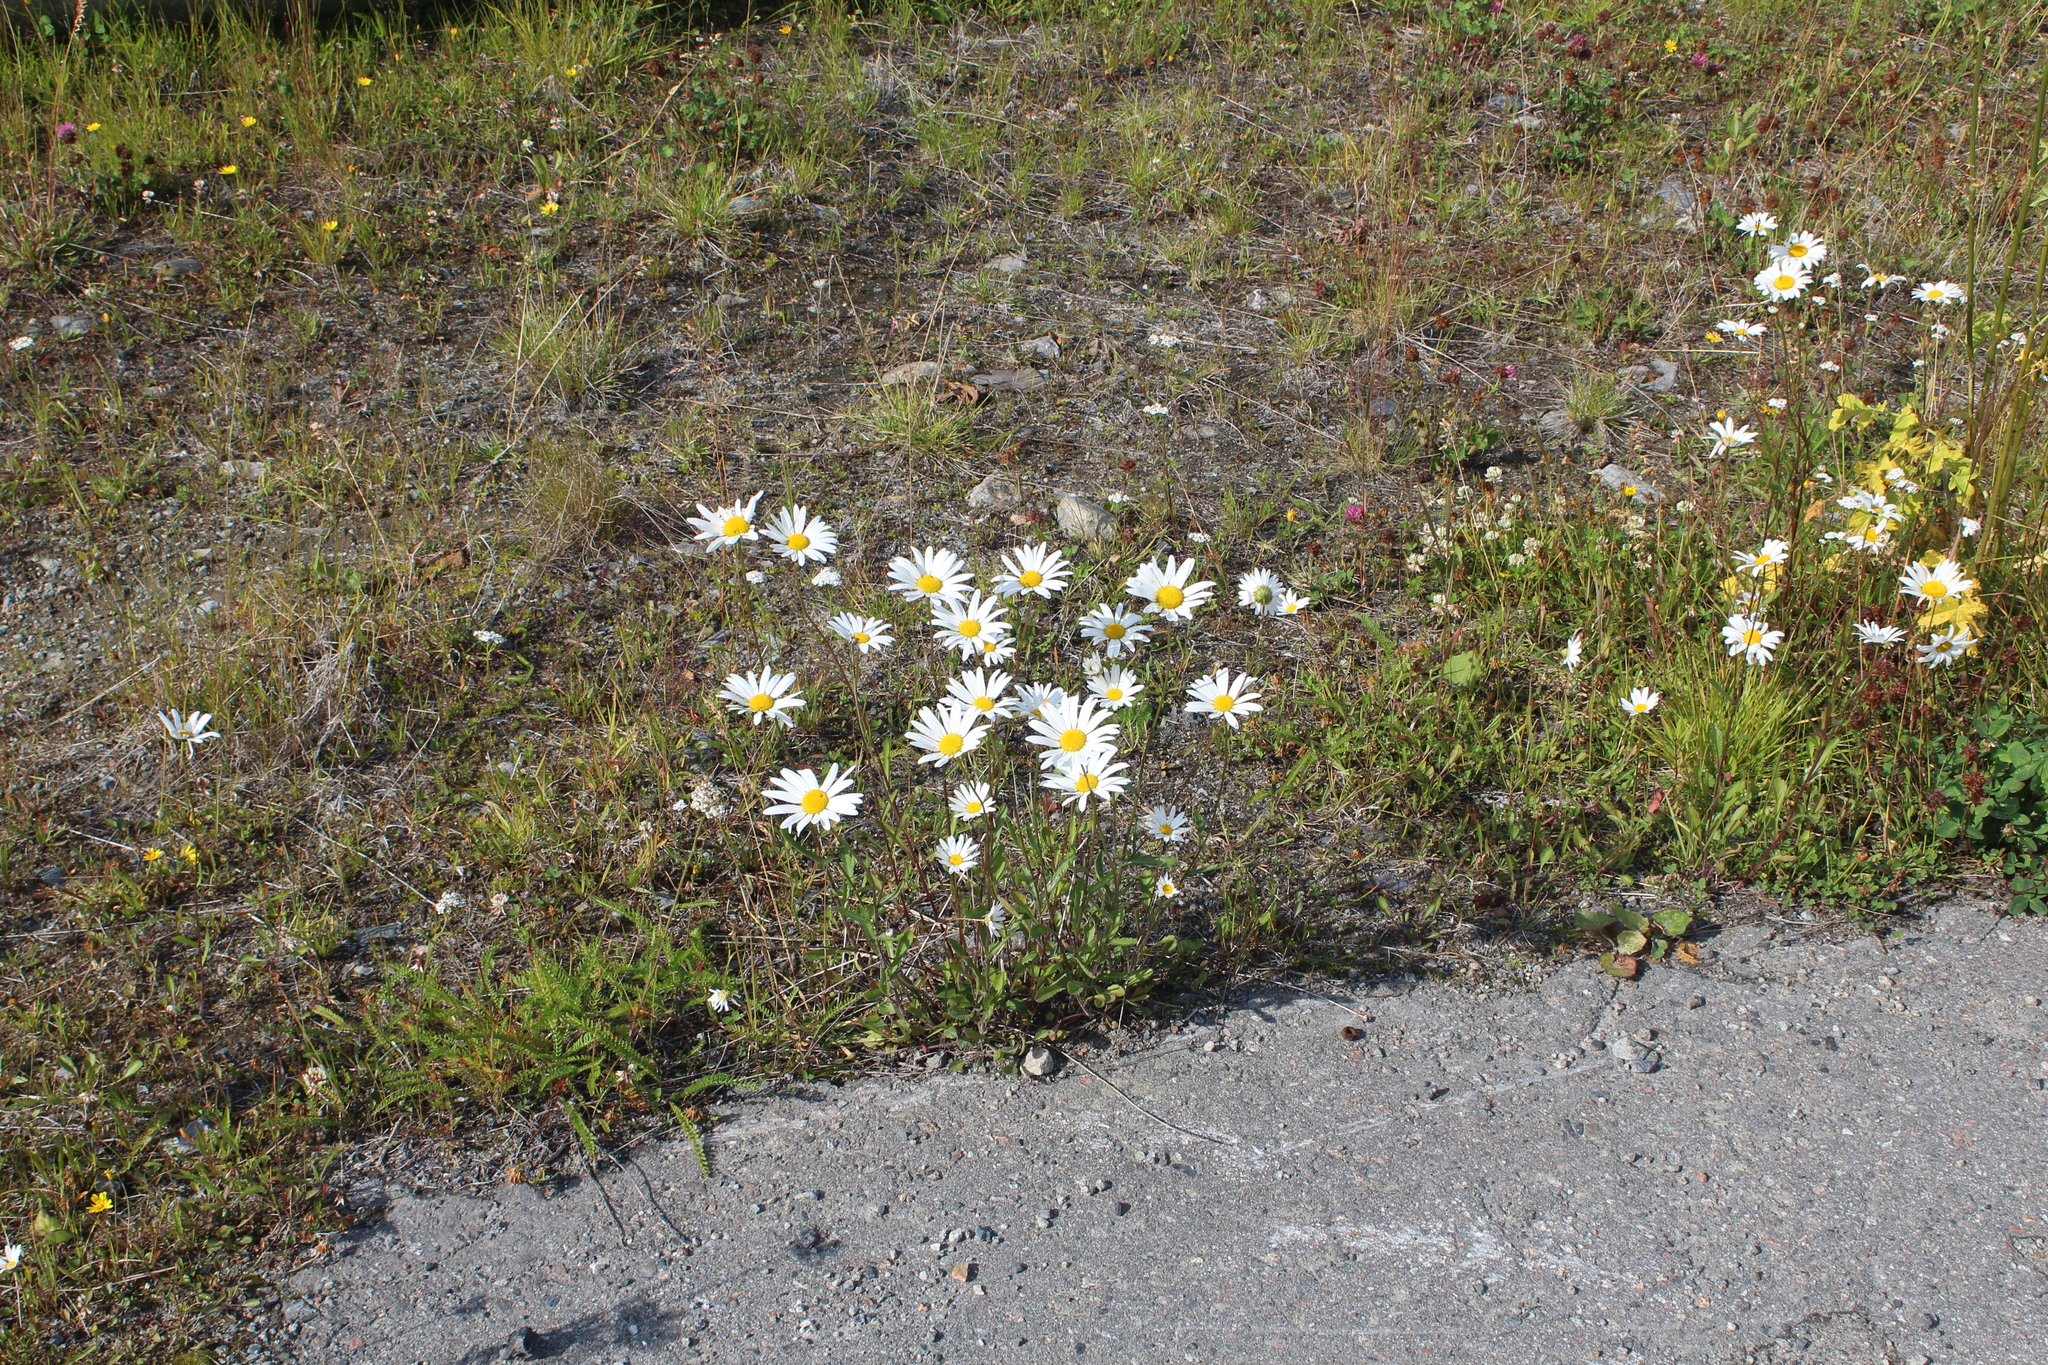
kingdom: Plantae
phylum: Tracheophyta
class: Magnoliopsida
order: Asterales
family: Asteraceae
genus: Leucanthemum
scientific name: Leucanthemum vulgare
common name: Oxeye daisy
